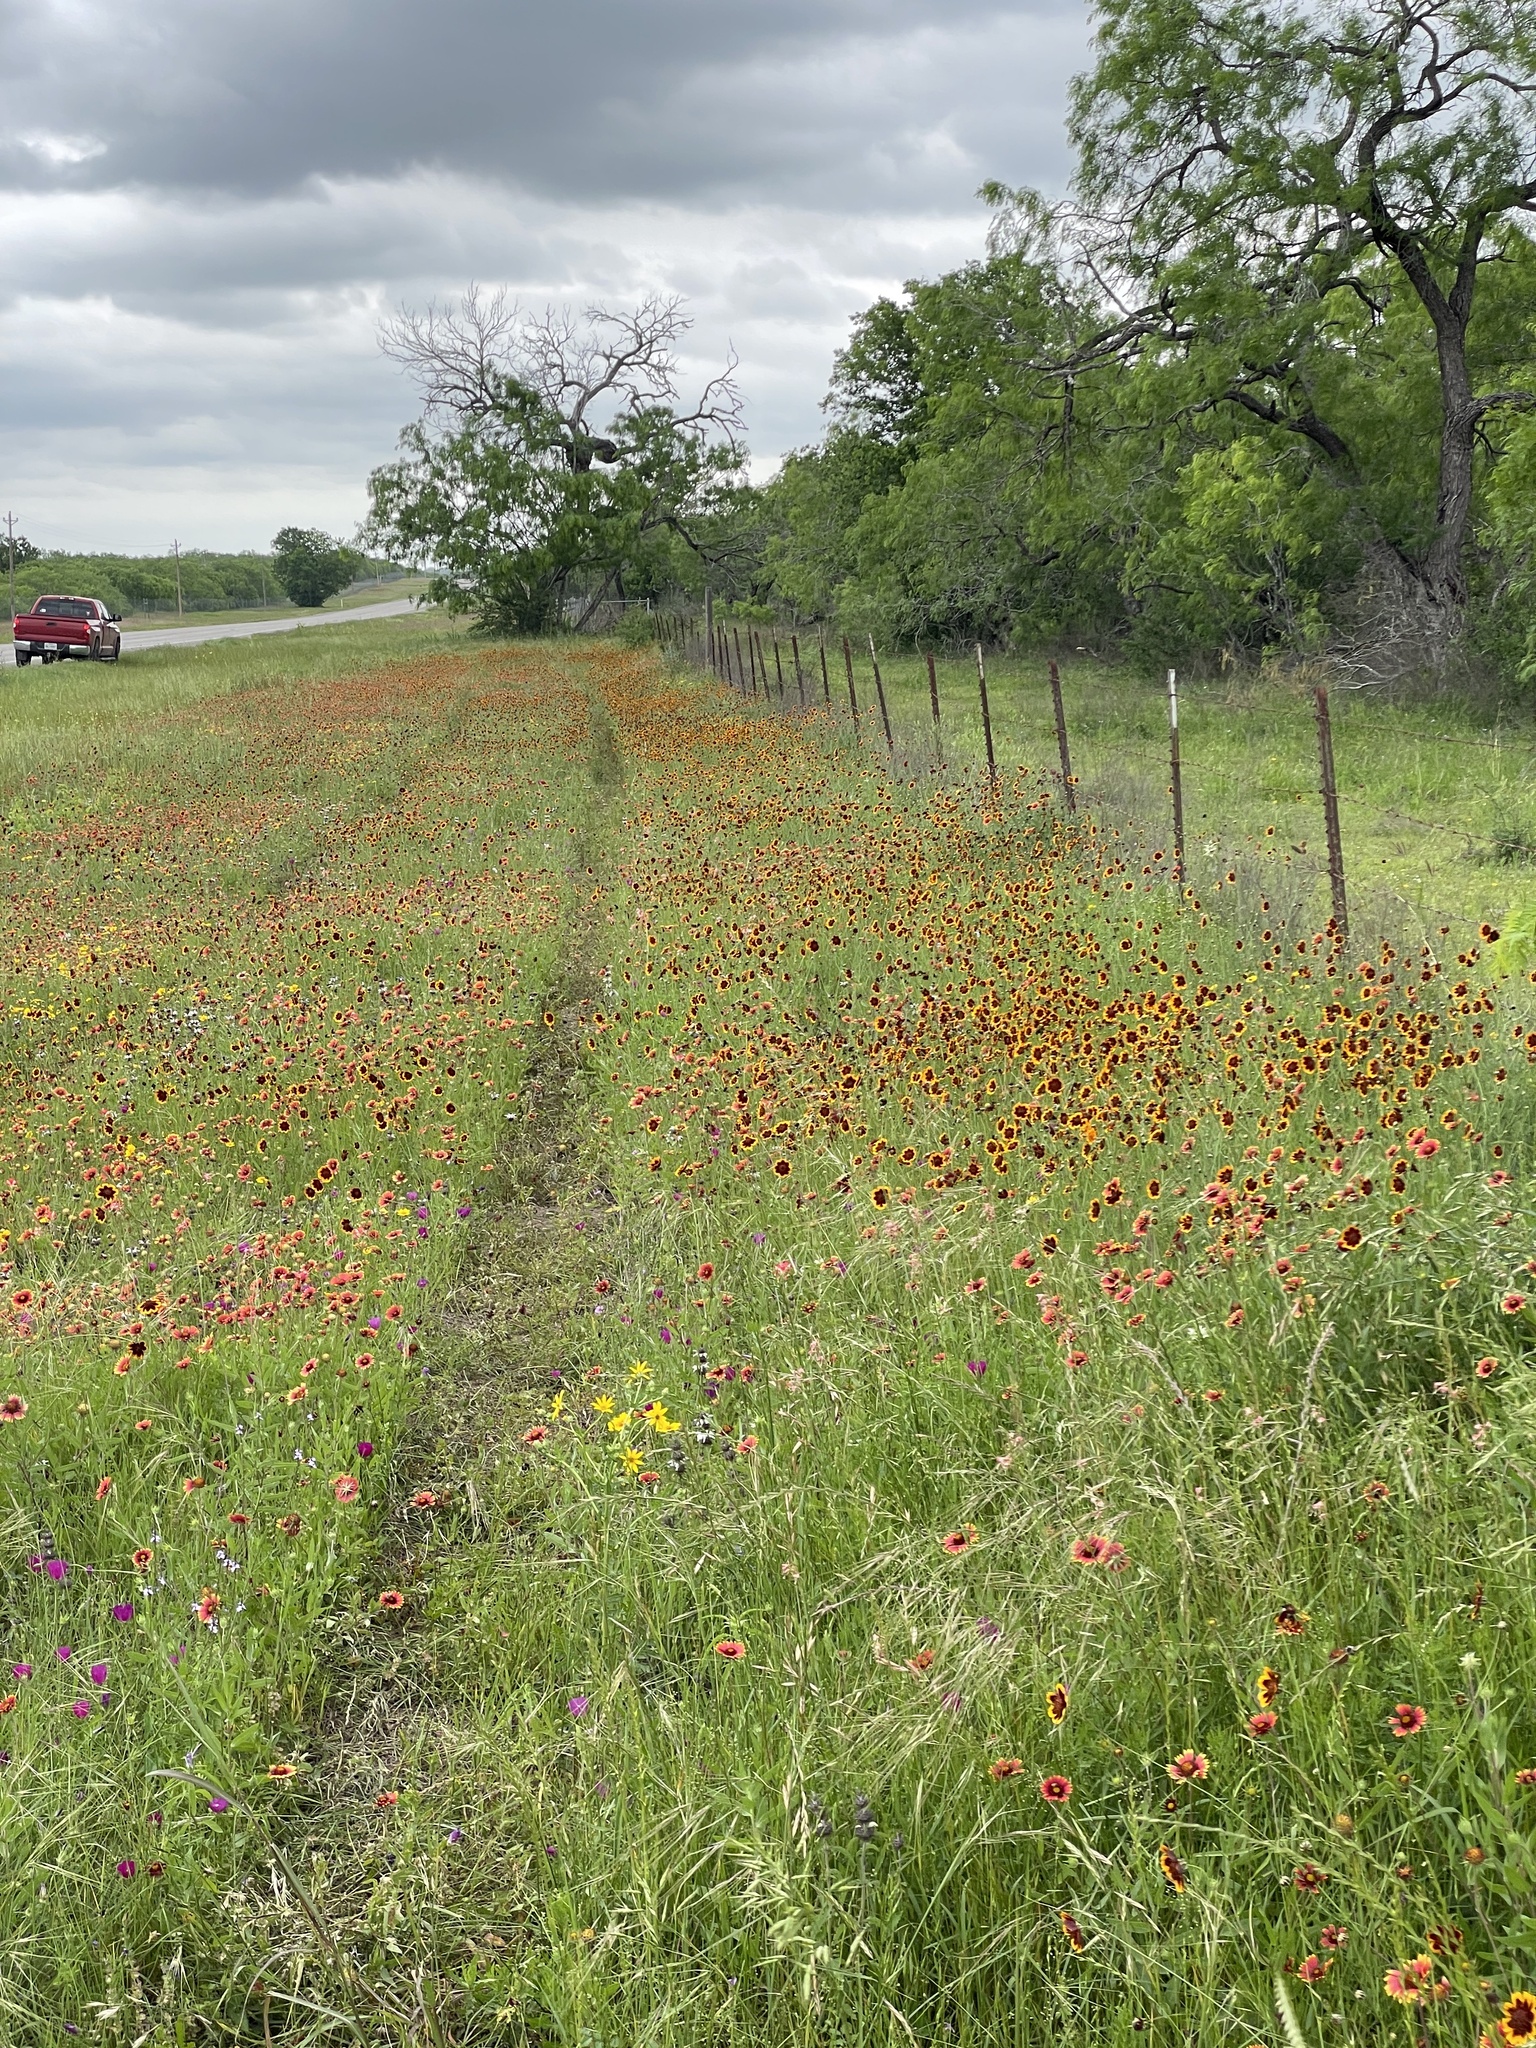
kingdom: Plantae
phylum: Tracheophyta
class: Magnoliopsida
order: Asterales
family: Asteraceae
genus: Thelesperma
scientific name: Thelesperma burridgeanum
